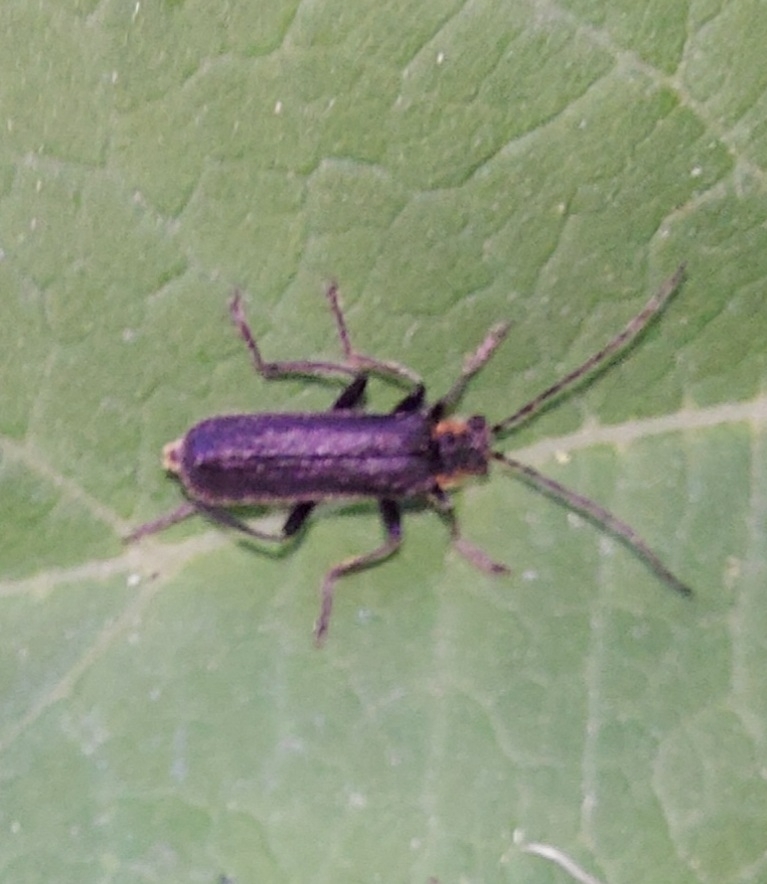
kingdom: Animalia
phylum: Arthropoda
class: Insecta
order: Coleoptera
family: Cantharidae
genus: Cantharis
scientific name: Cantharis obscura
